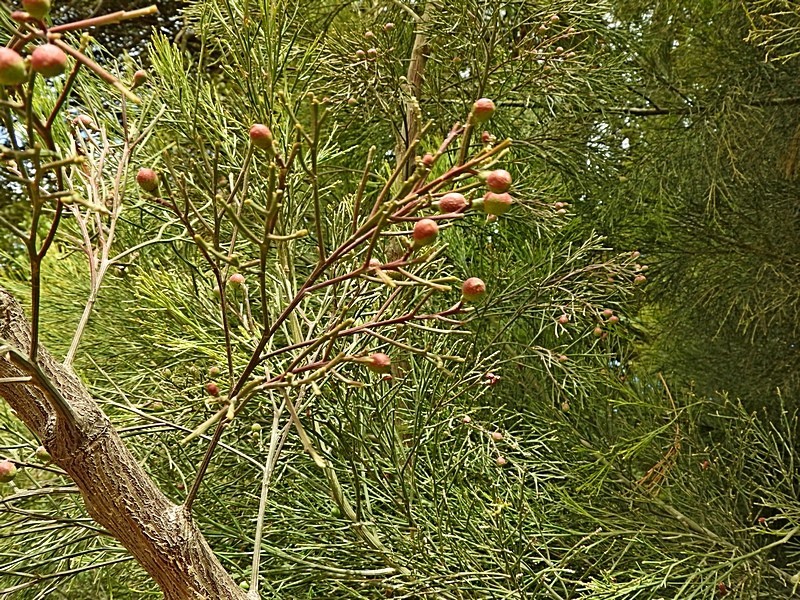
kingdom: Plantae
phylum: Tracheophyta
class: Magnoliopsida
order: Santalales
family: Santalaceae
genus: Exocarpos
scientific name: Exocarpos cupressiformis
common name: Cherry ballart
